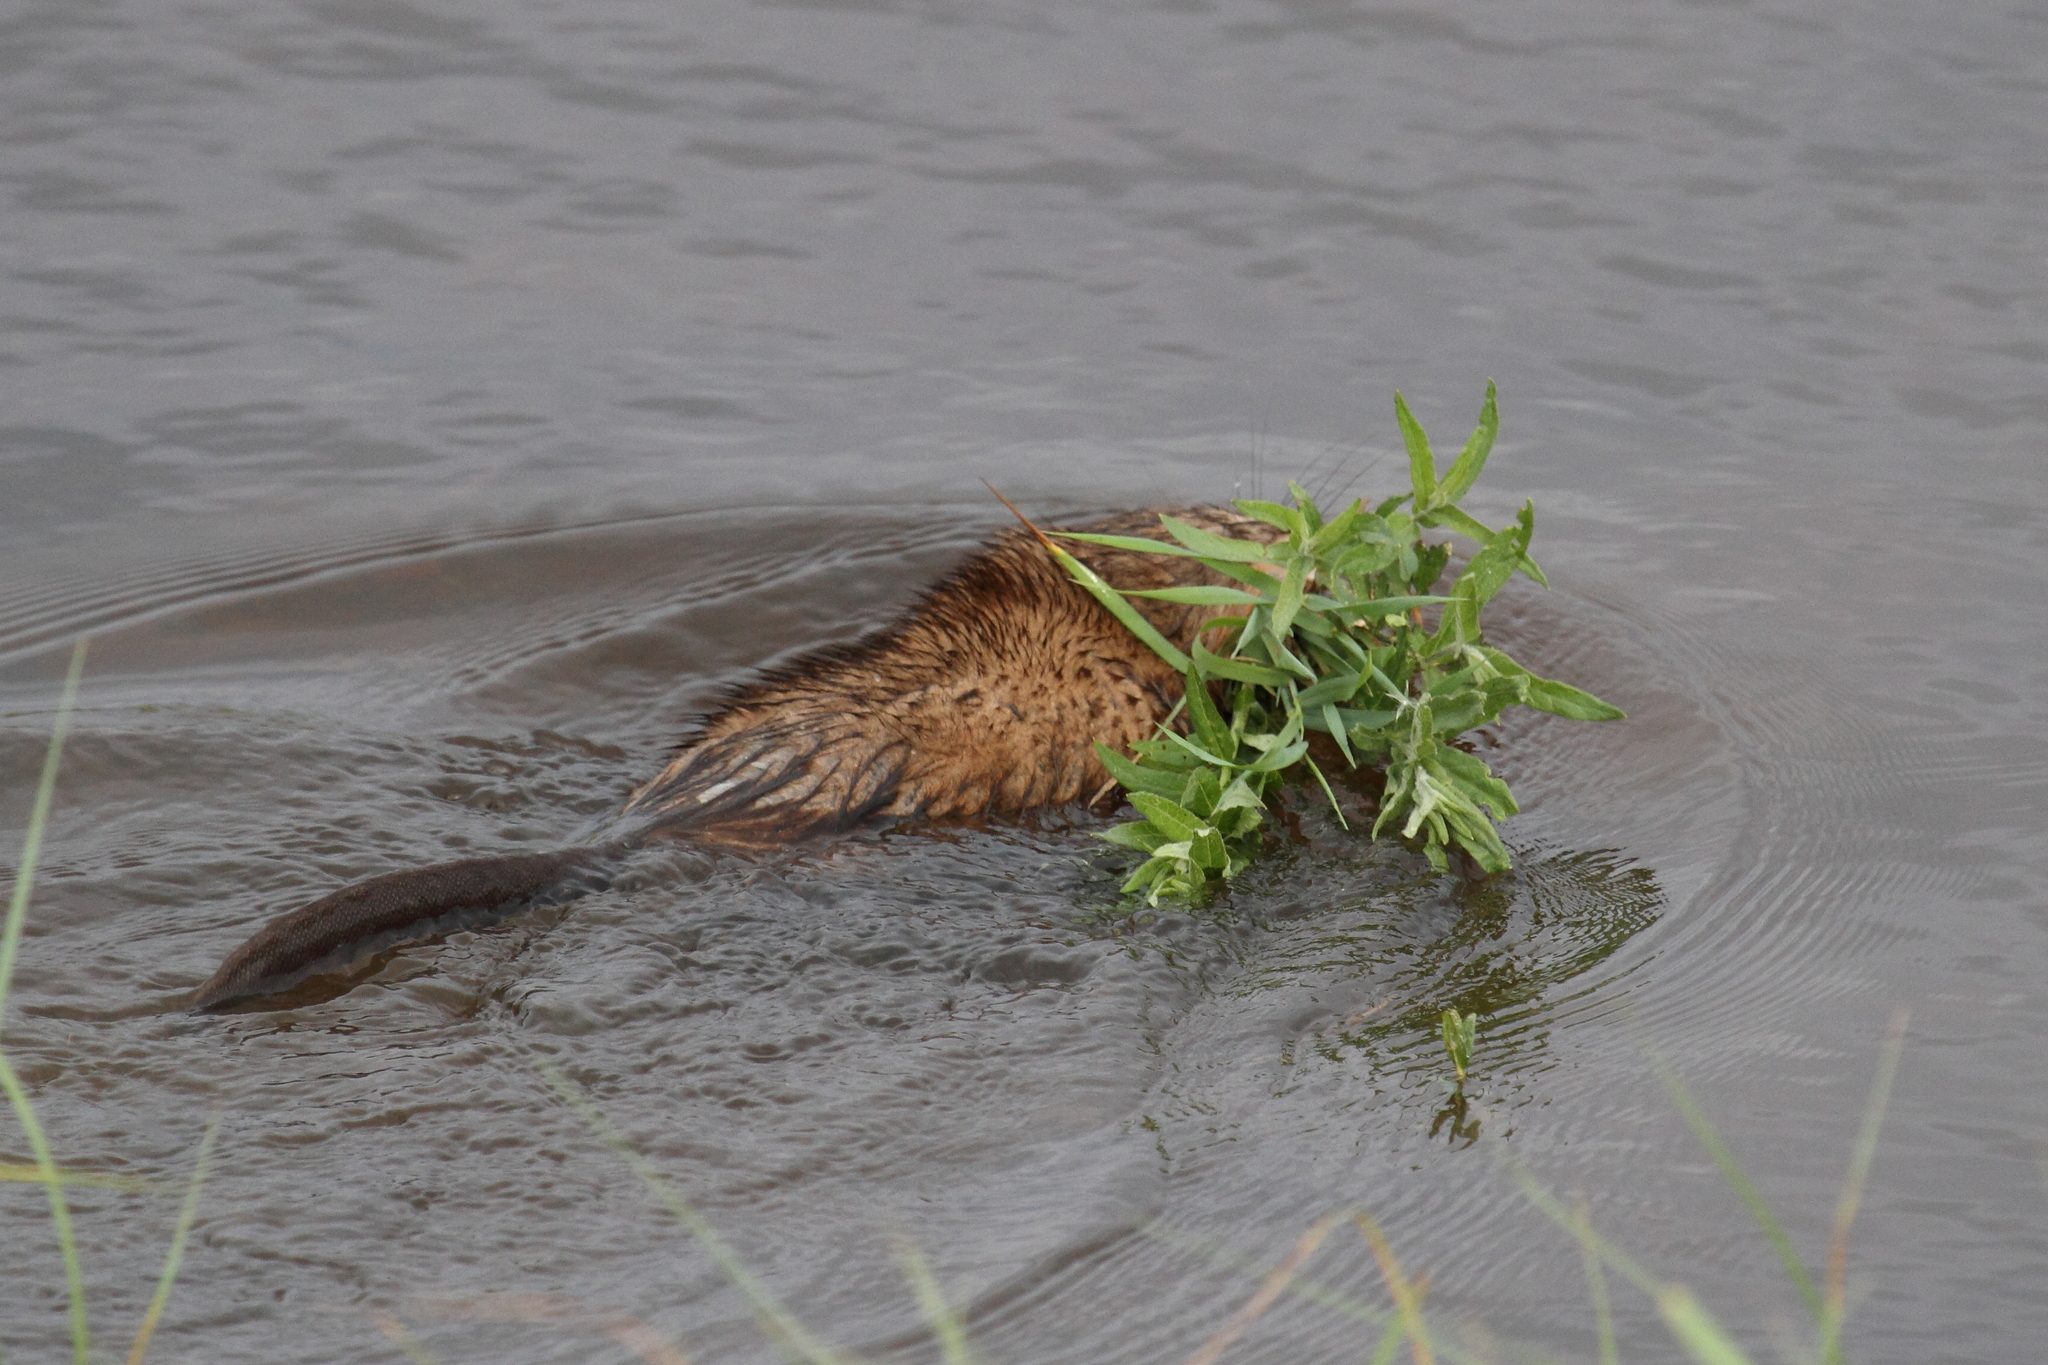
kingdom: Animalia
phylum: Chordata
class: Mammalia
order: Rodentia
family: Cricetidae
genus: Ondatra
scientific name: Ondatra zibethicus
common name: Muskrat
